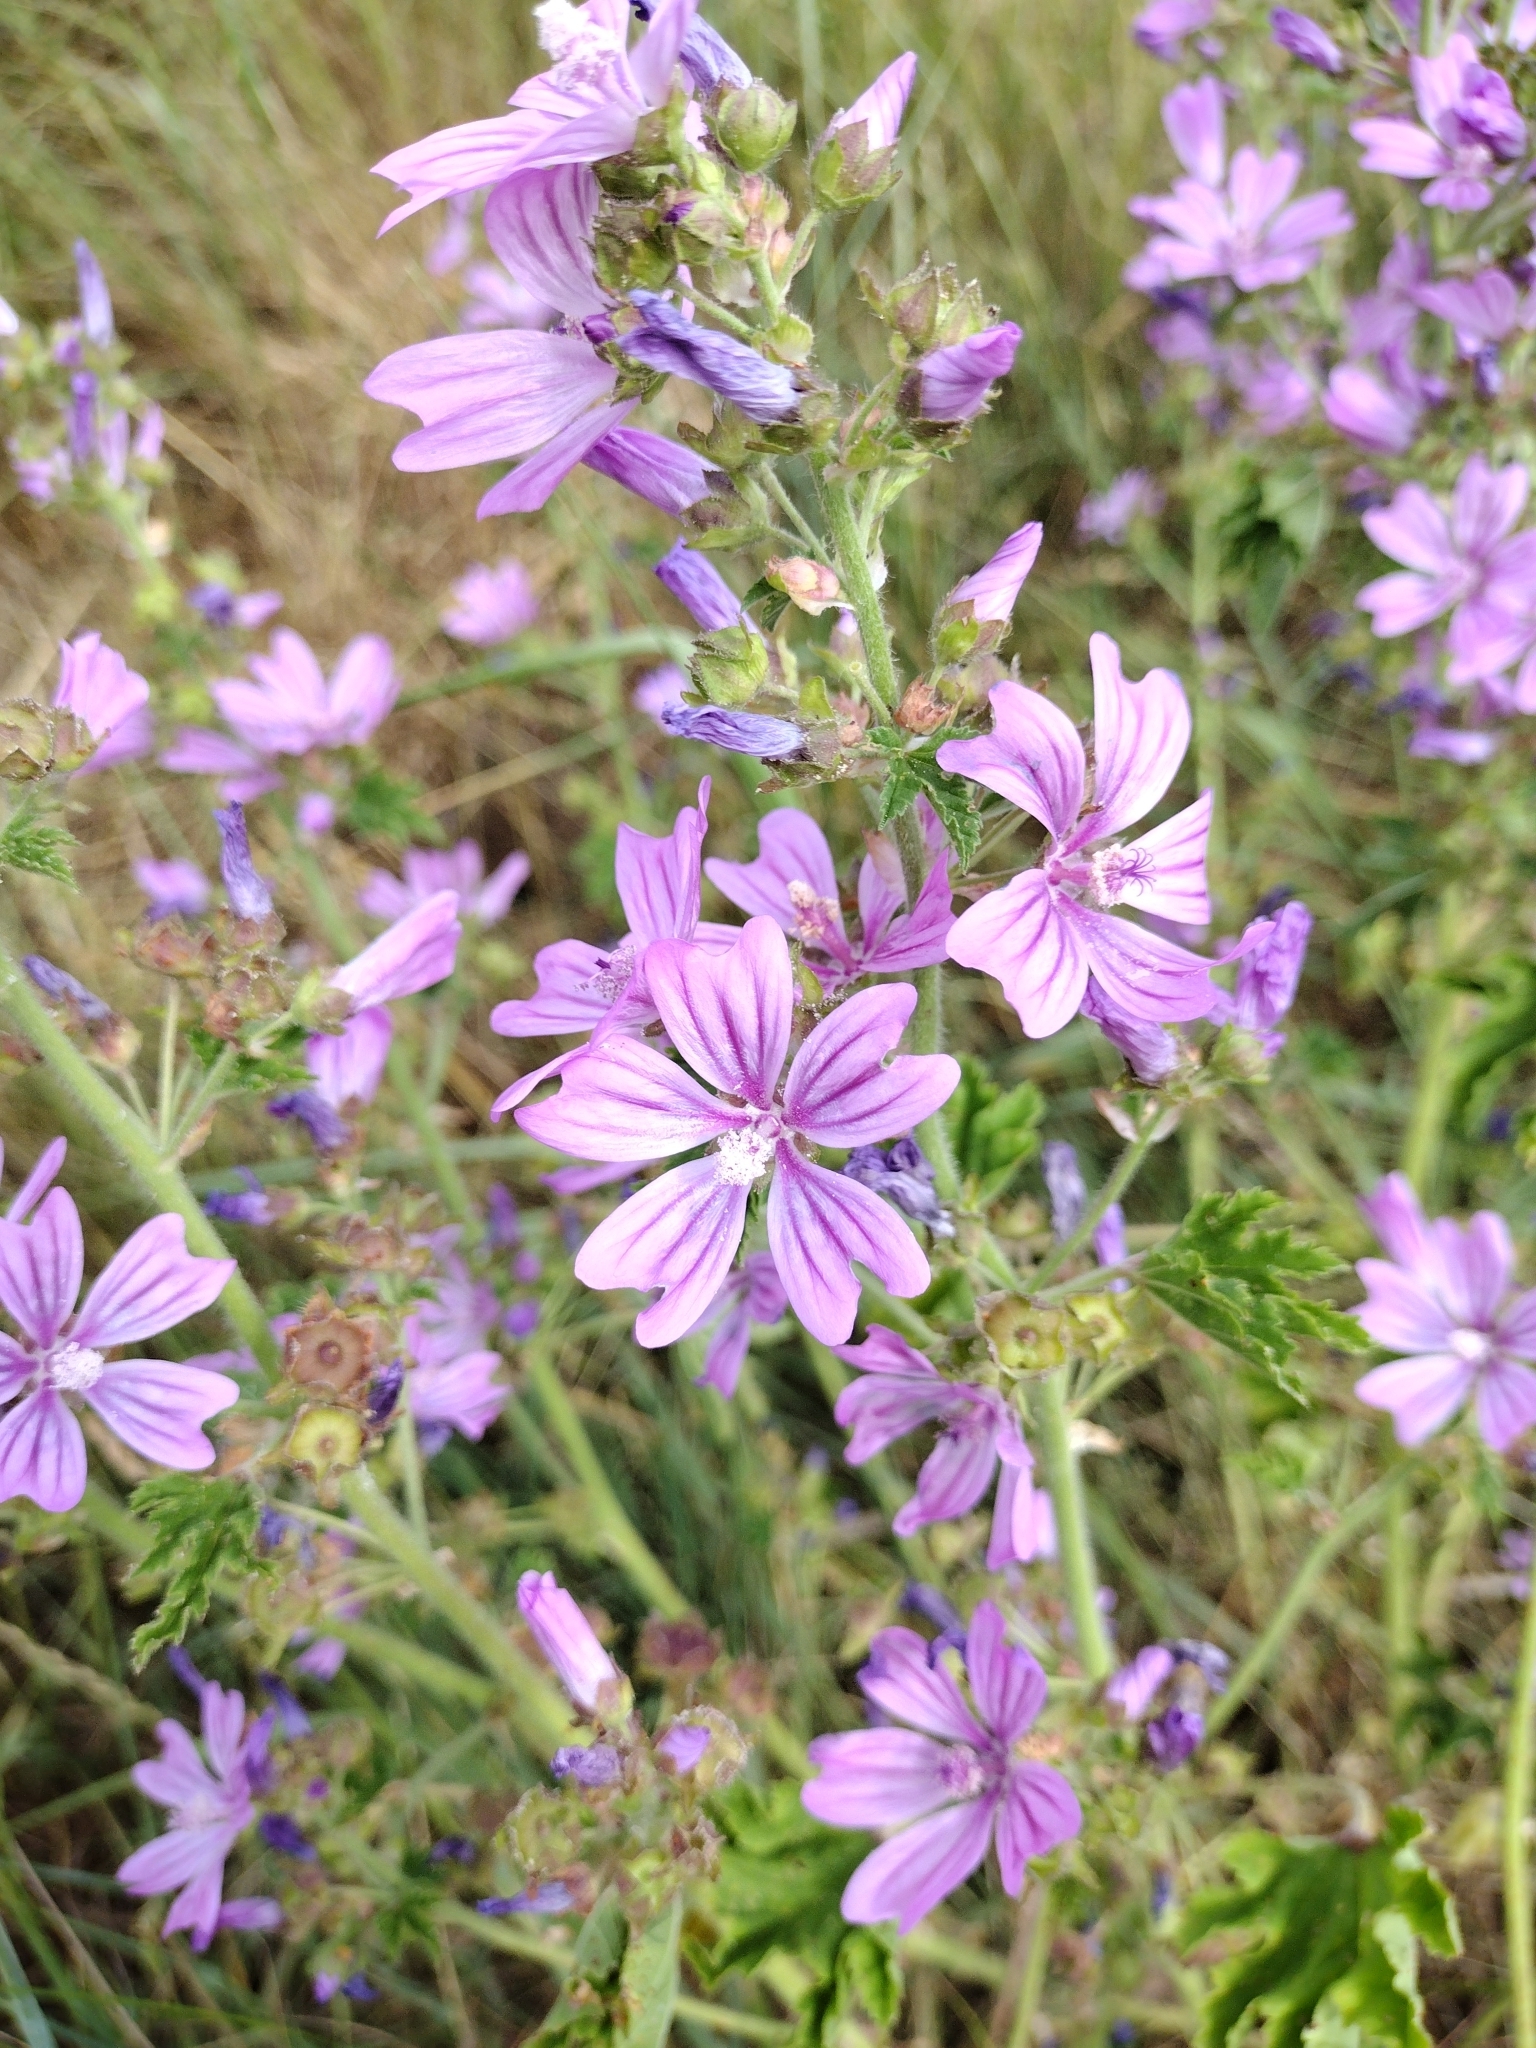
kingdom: Plantae
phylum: Tracheophyta
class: Magnoliopsida
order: Malvales
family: Malvaceae
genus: Malva
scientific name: Malva sylvestris
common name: Common mallow
